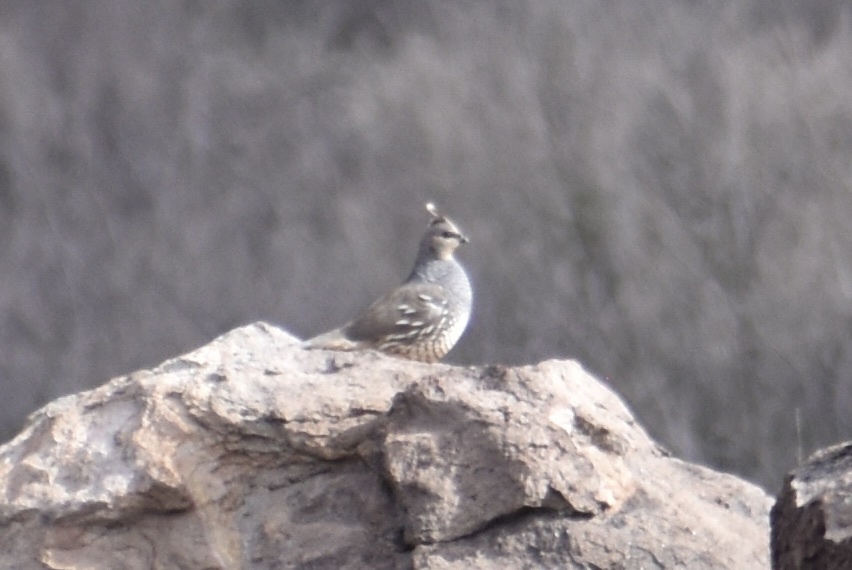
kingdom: Animalia
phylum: Chordata
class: Aves
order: Galliformes
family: Odontophoridae
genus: Callipepla
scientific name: Callipepla squamata
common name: Scaled quail
